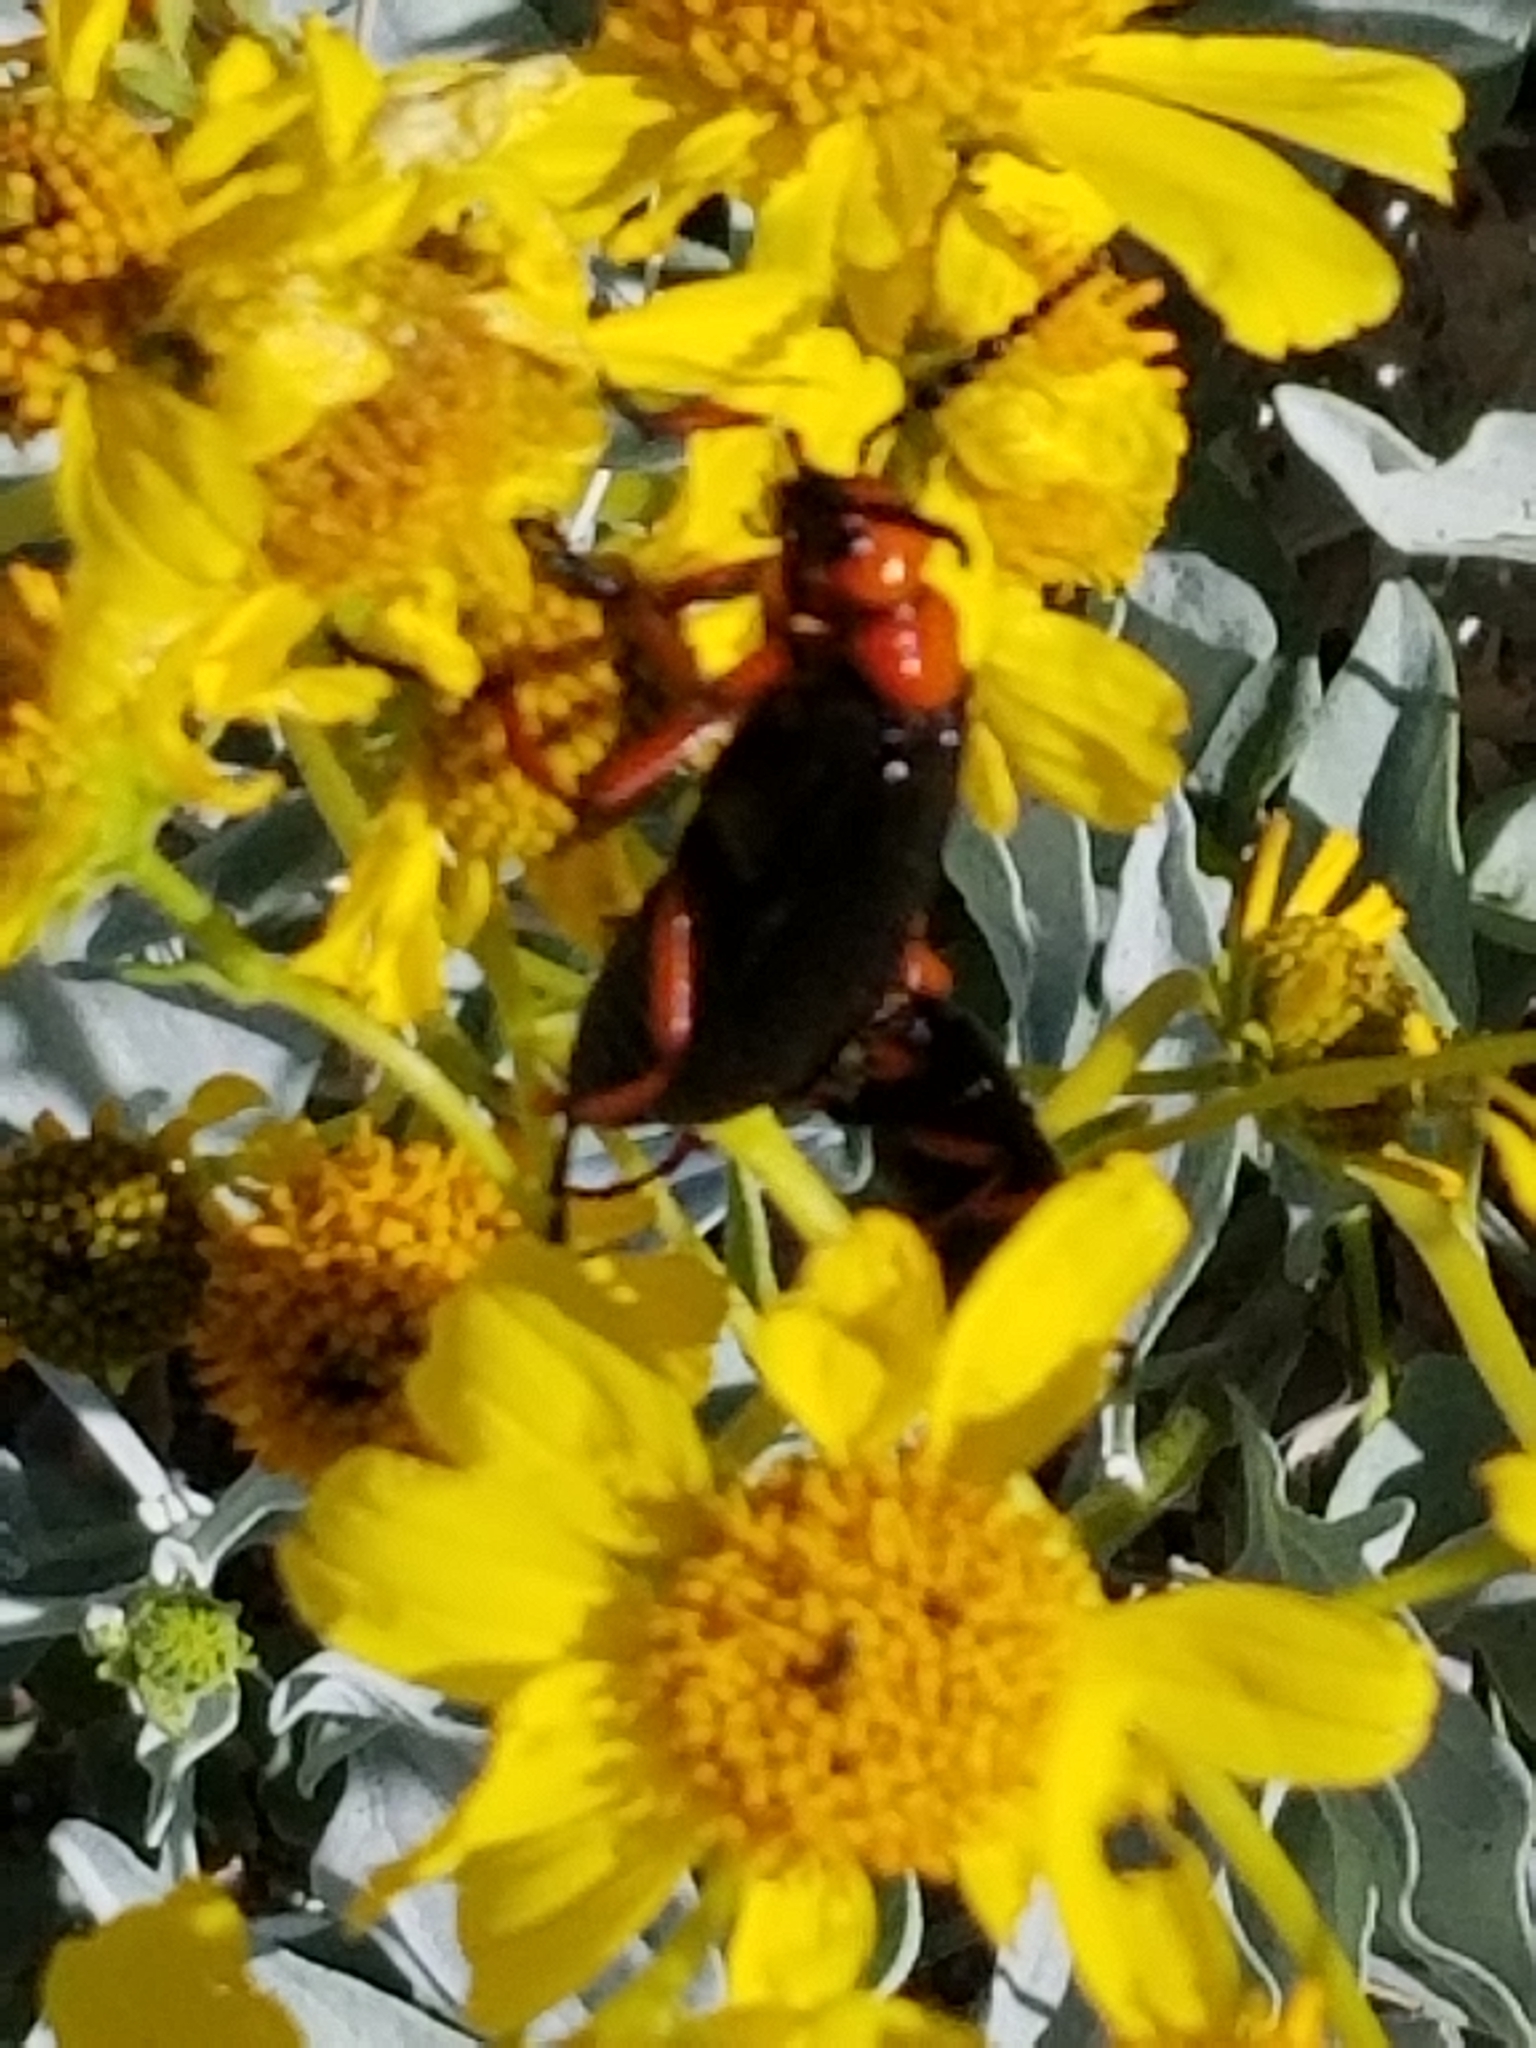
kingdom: Animalia
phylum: Arthropoda
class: Insecta
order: Coleoptera
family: Meloidae
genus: Lytta
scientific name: Lytta magister
